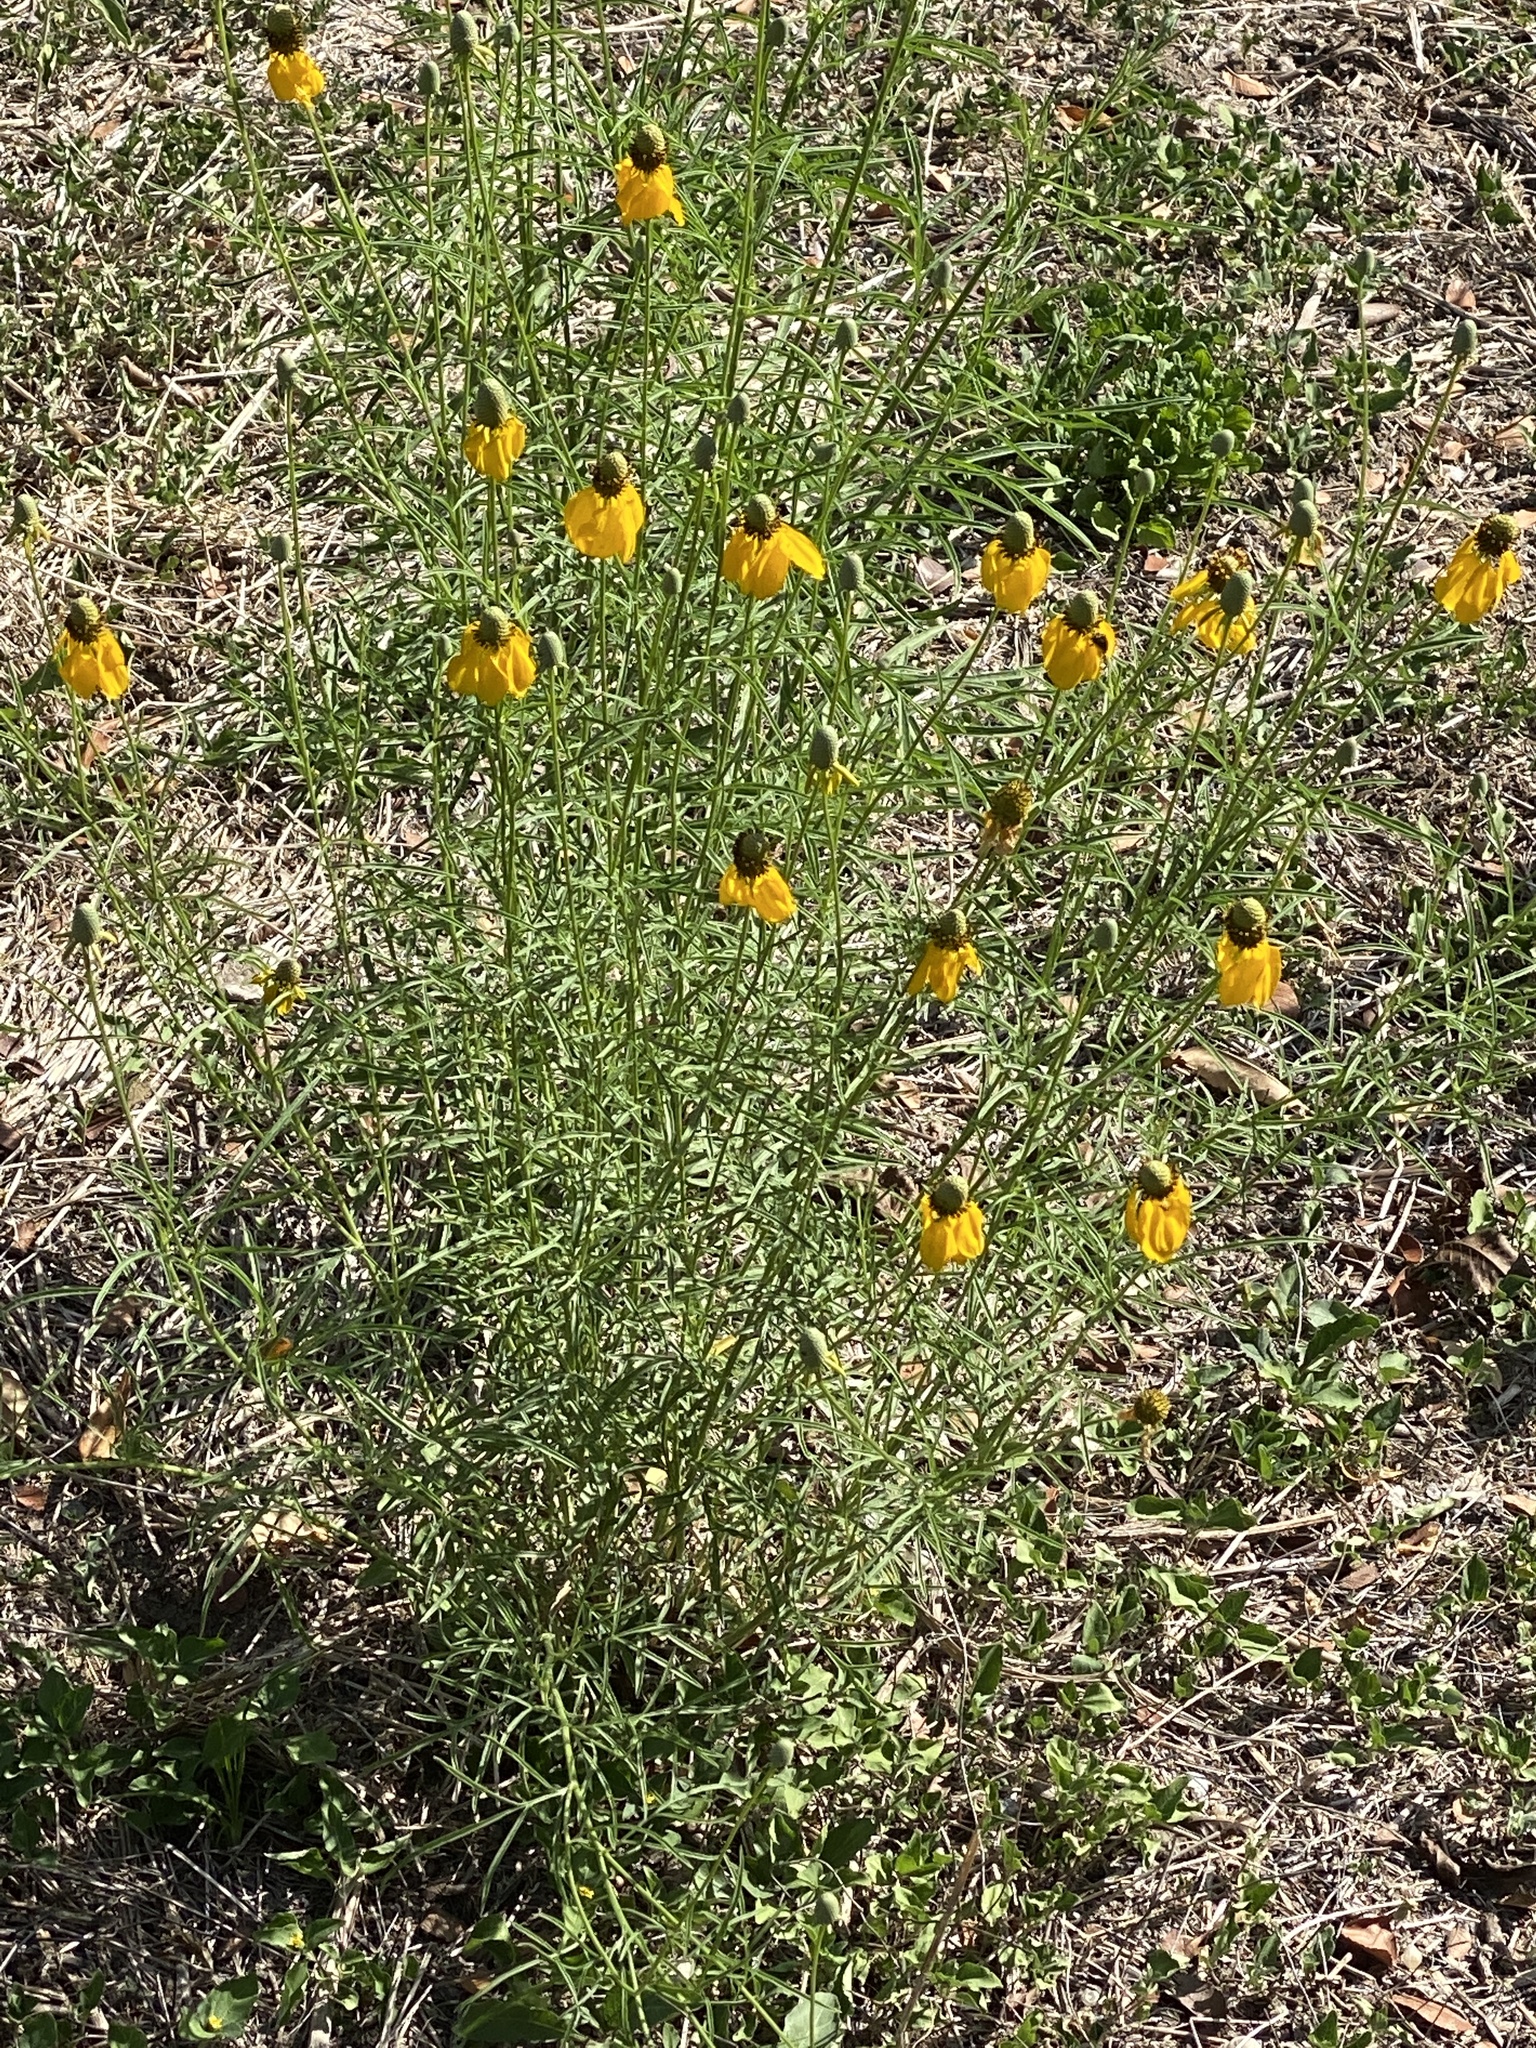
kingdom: Plantae
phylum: Tracheophyta
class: Magnoliopsida
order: Asterales
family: Asteraceae
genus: Ratibida
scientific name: Ratibida columnifera
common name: Prairie coneflower
